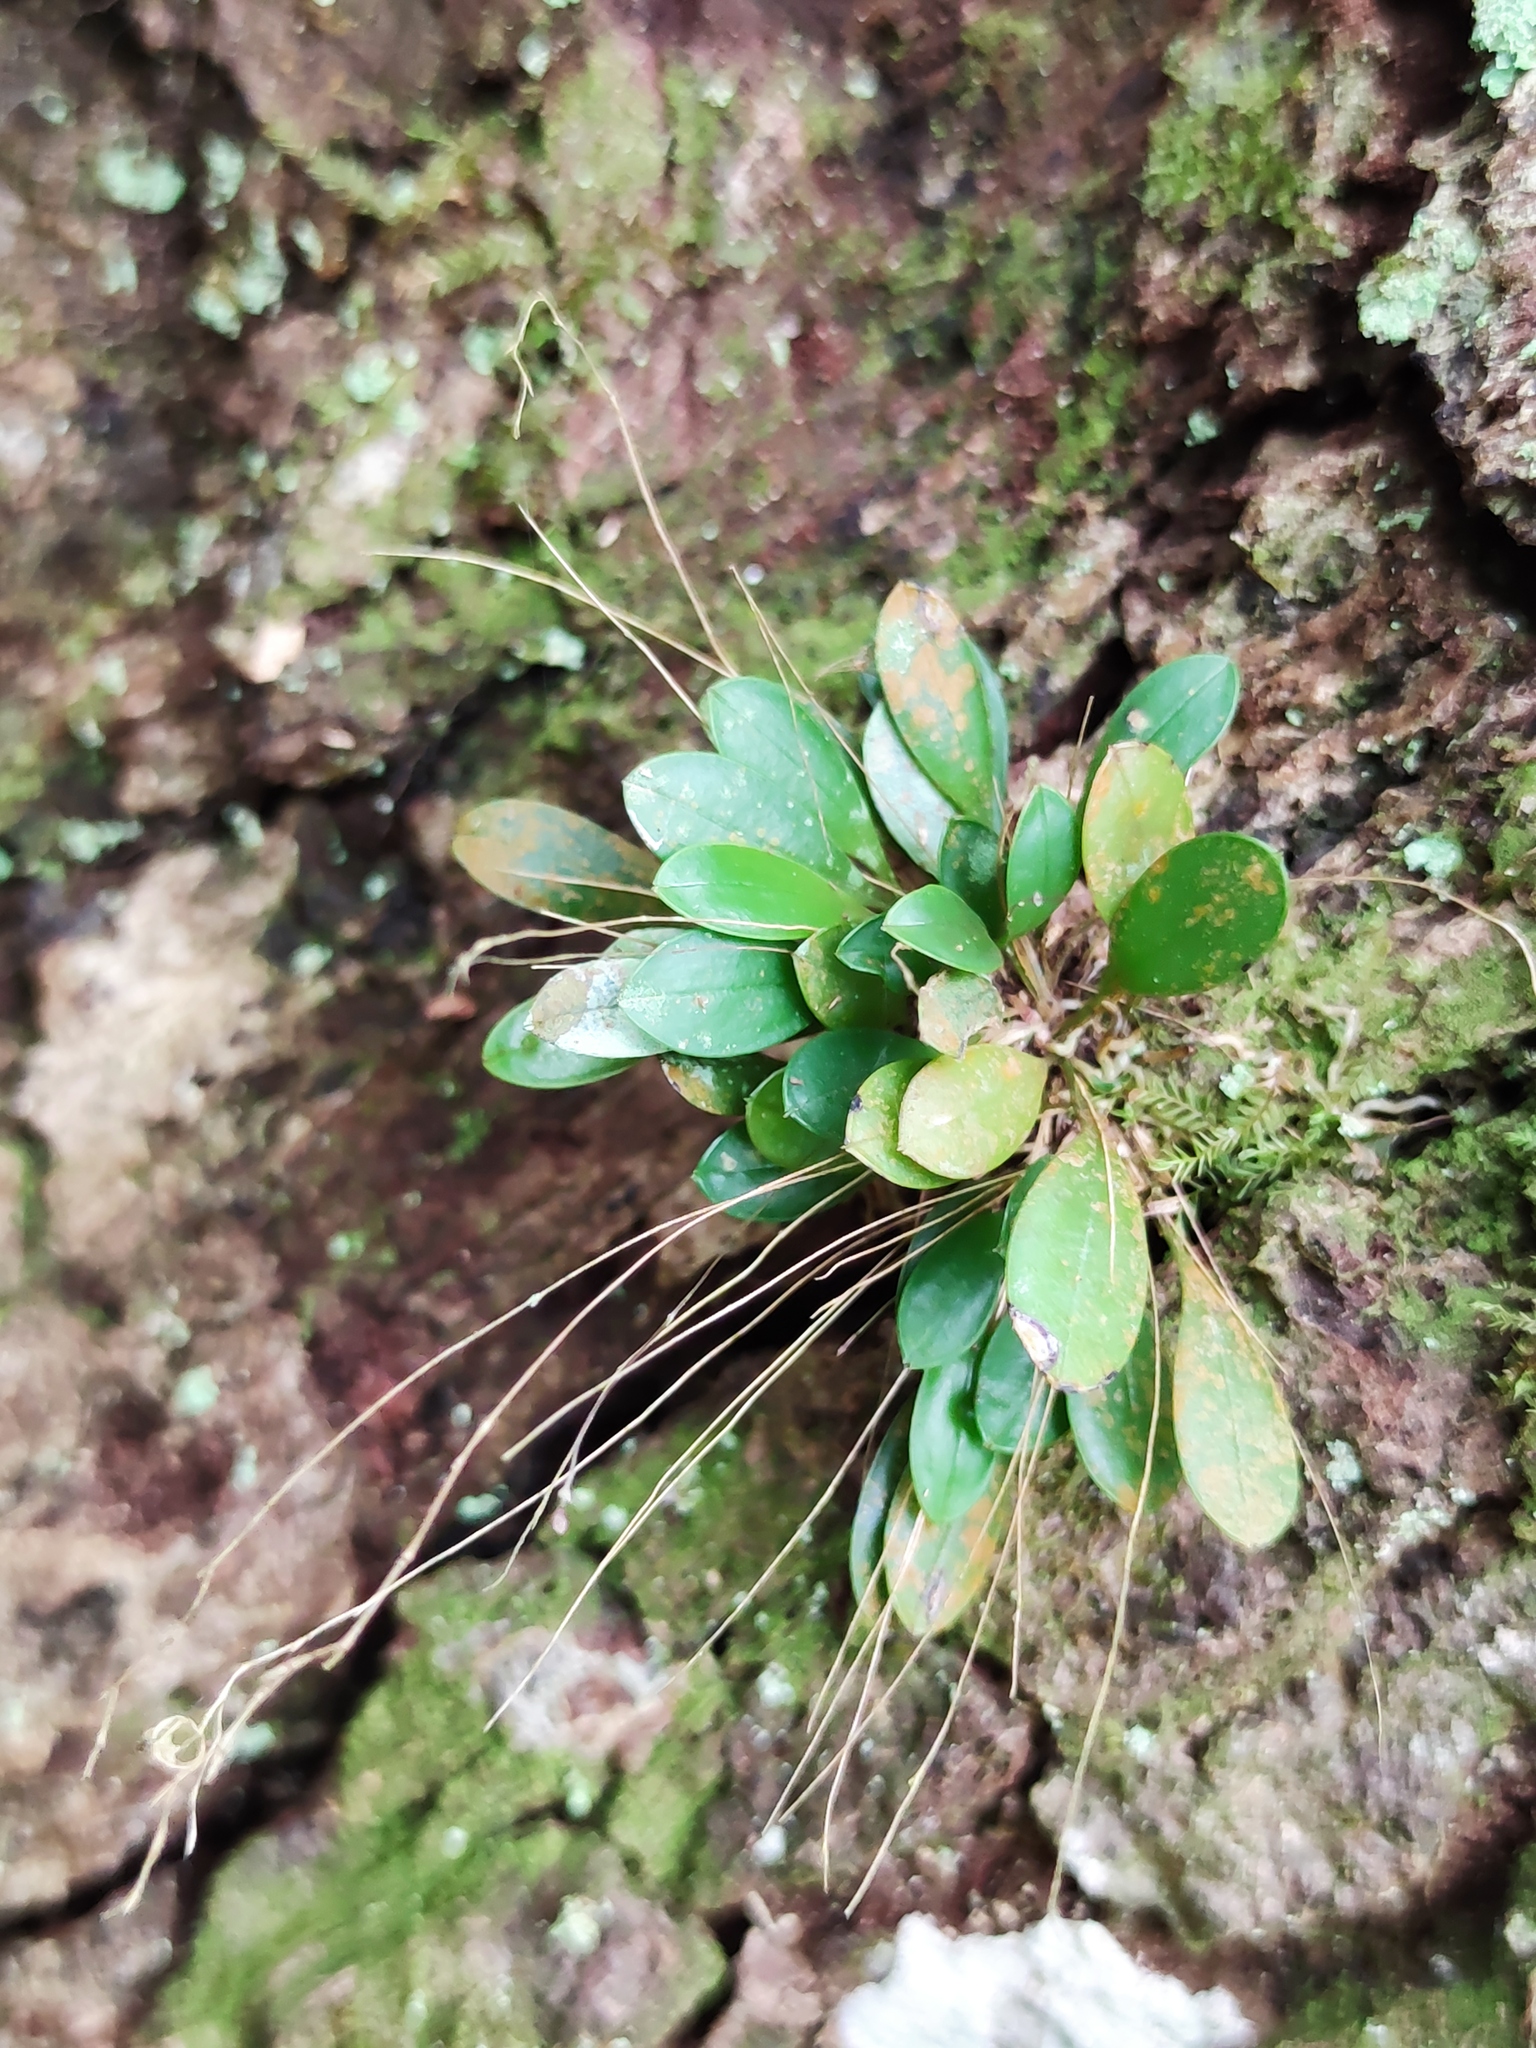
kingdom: Plantae
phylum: Tracheophyta
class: Liliopsida
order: Asparagales
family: Orchidaceae
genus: Muscarella
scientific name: Muscarella segregatifolia
